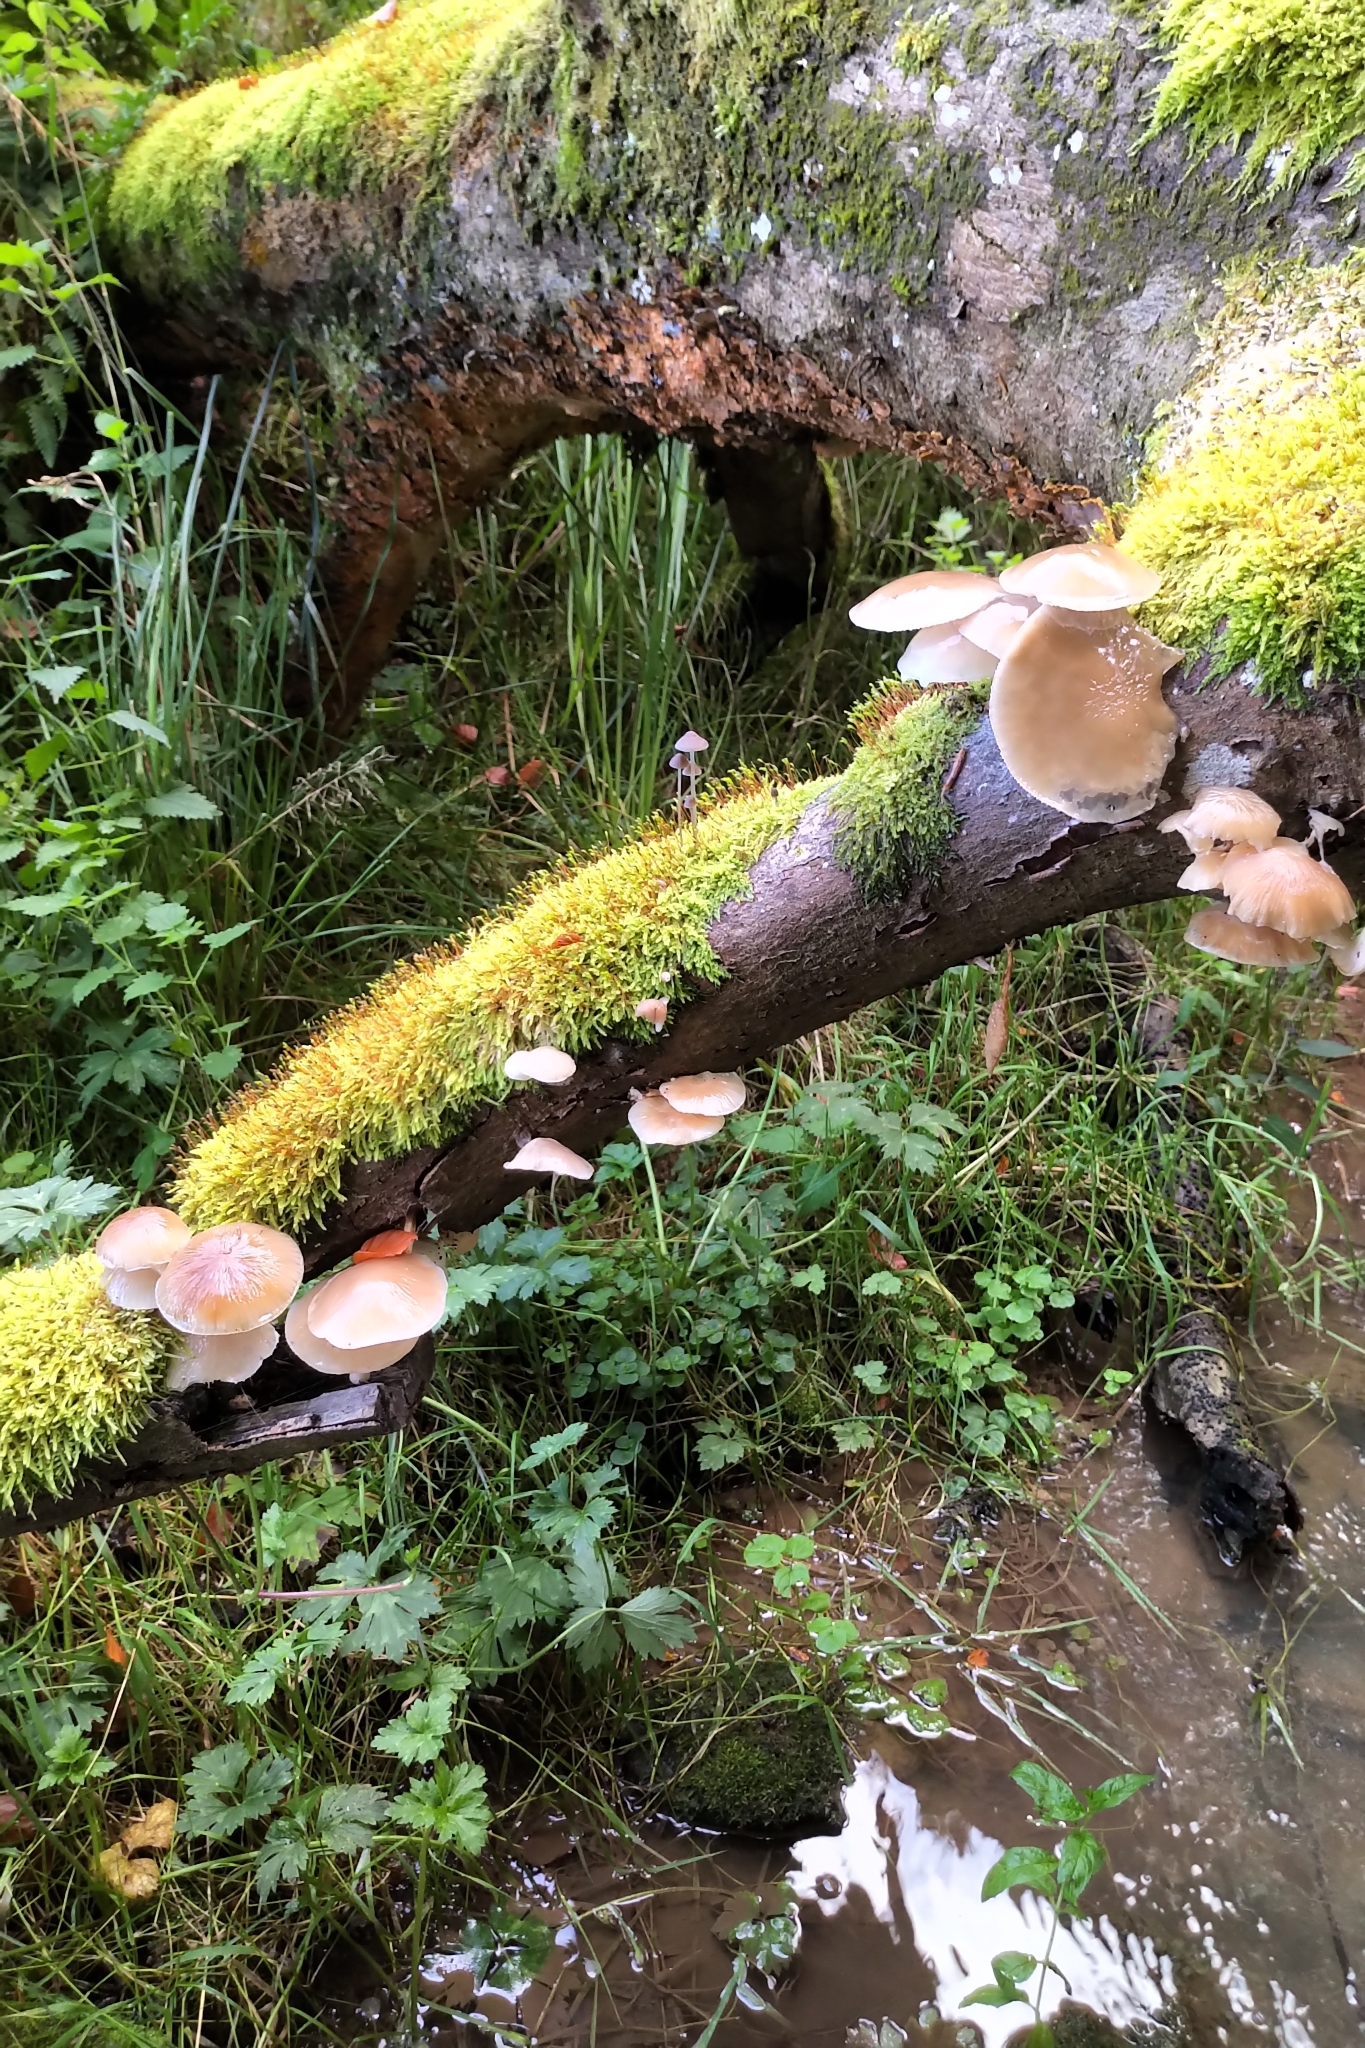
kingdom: Fungi
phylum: Basidiomycota
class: Agaricomycetes
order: Agaricales
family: Physalacriaceae
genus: Mucidula
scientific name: Mucidula mucida
